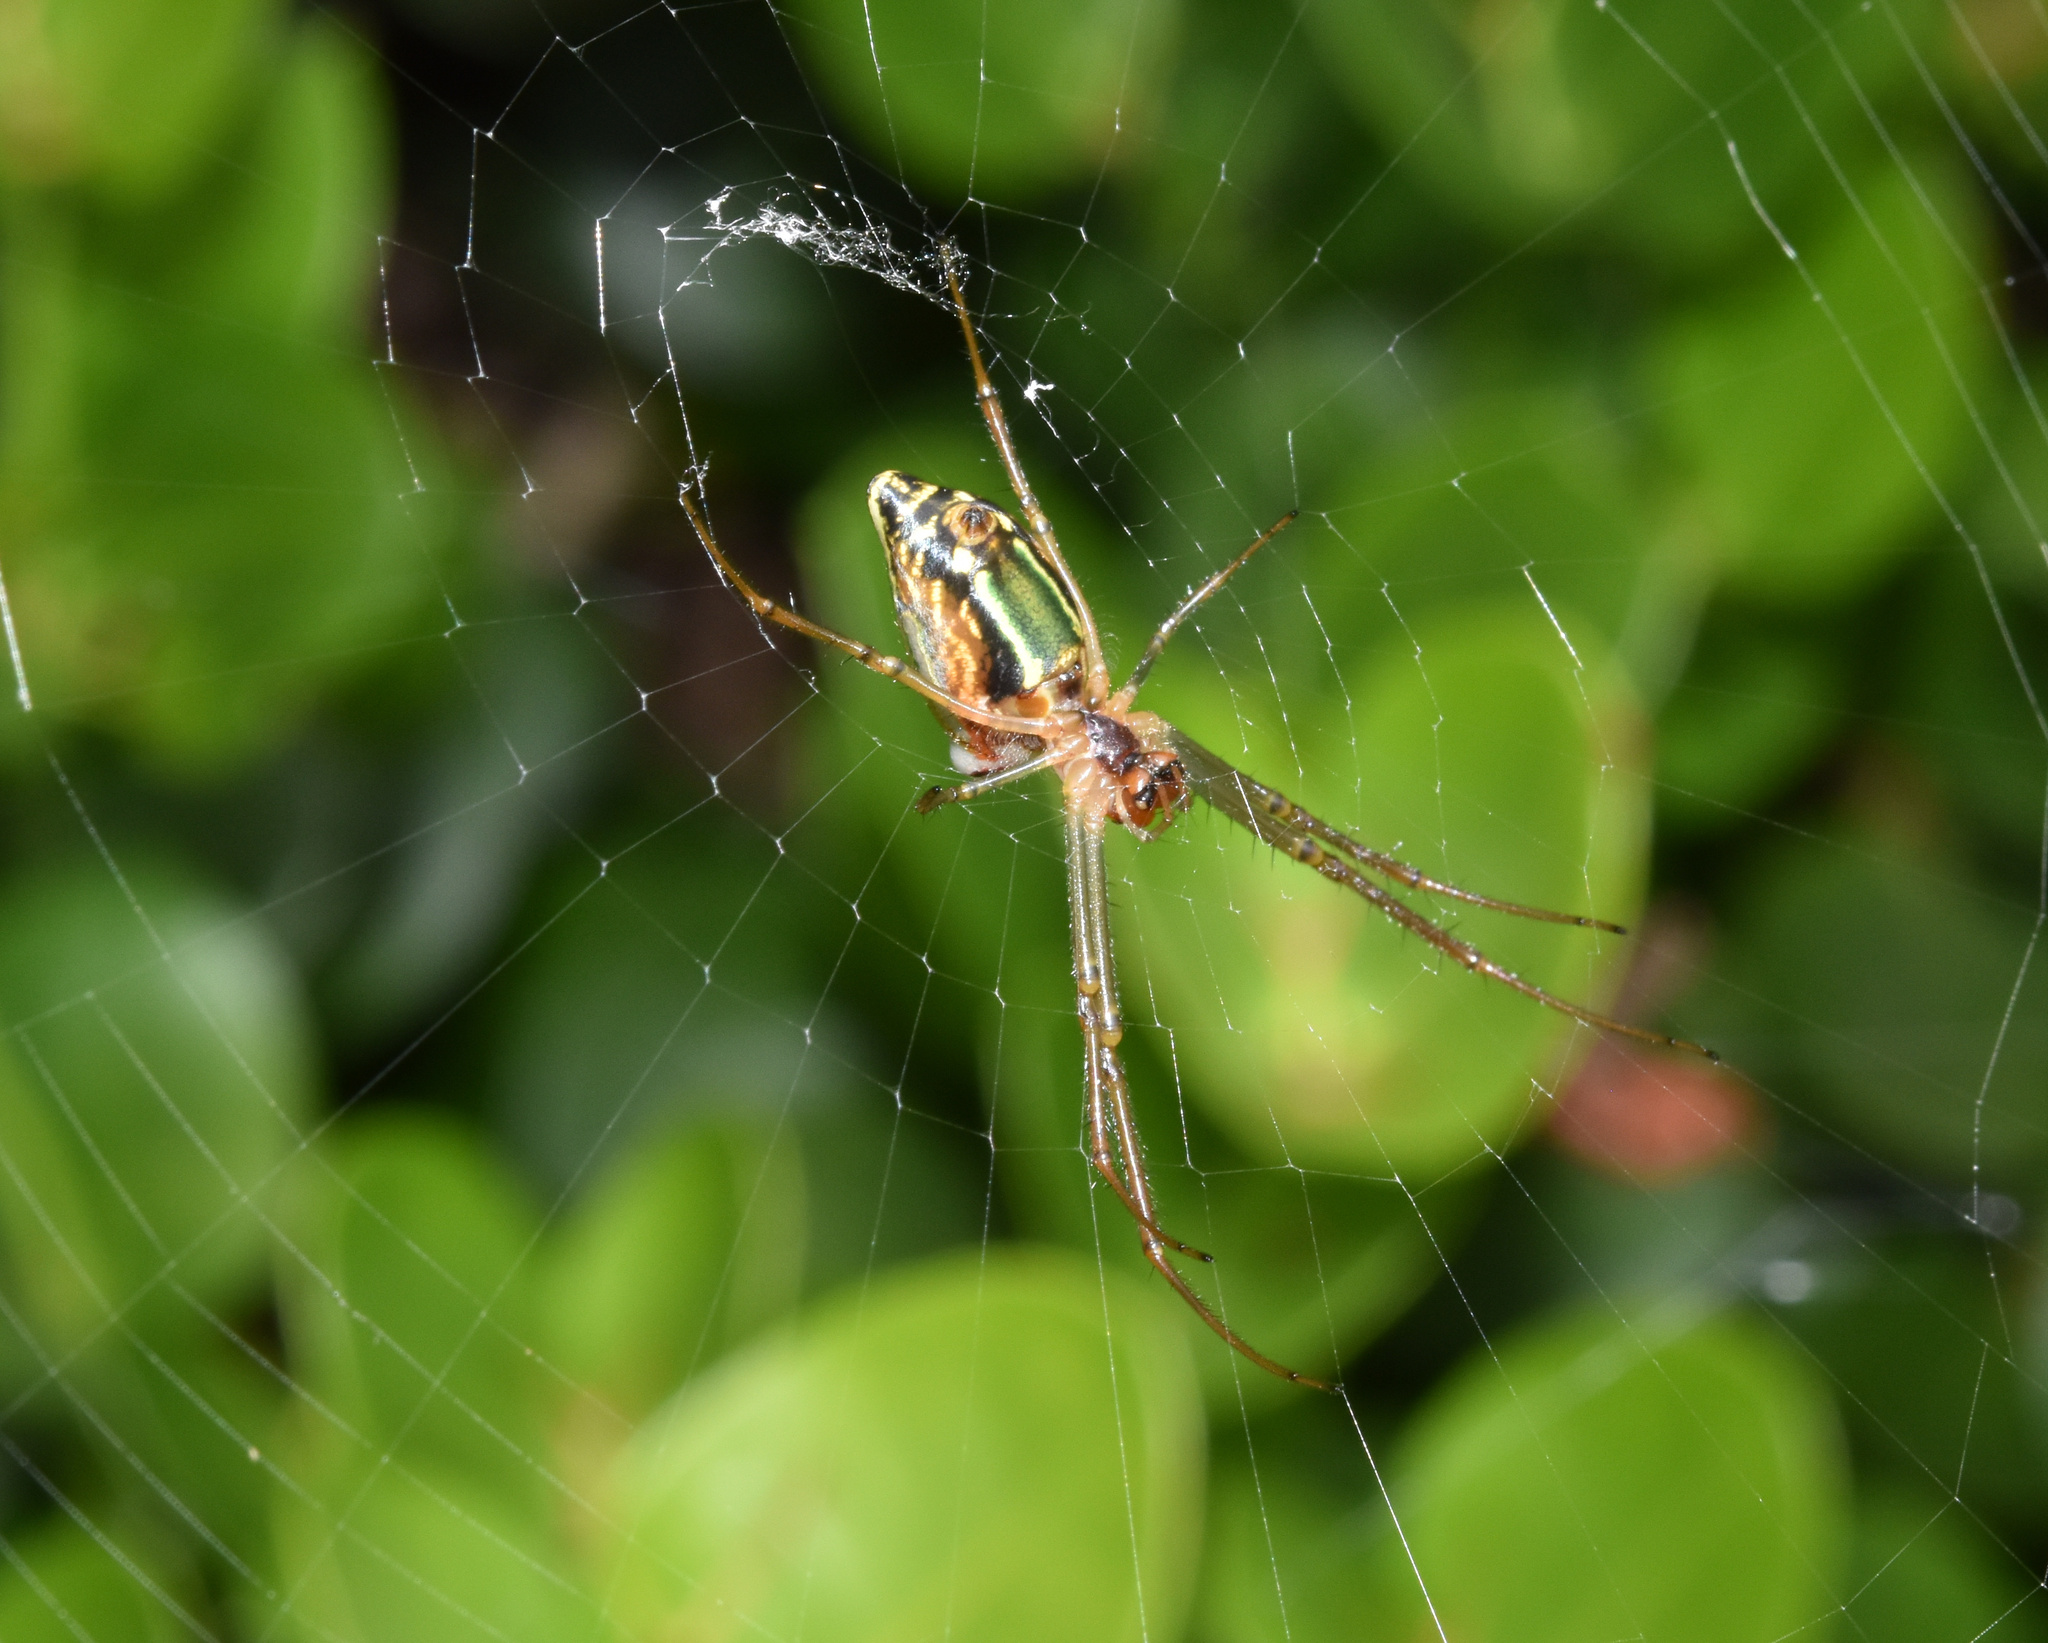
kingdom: Animalia
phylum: Arthropoda
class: Arachnida
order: Araneae
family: Tetragnathidae
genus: Leucauge
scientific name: Leucauge festiva
